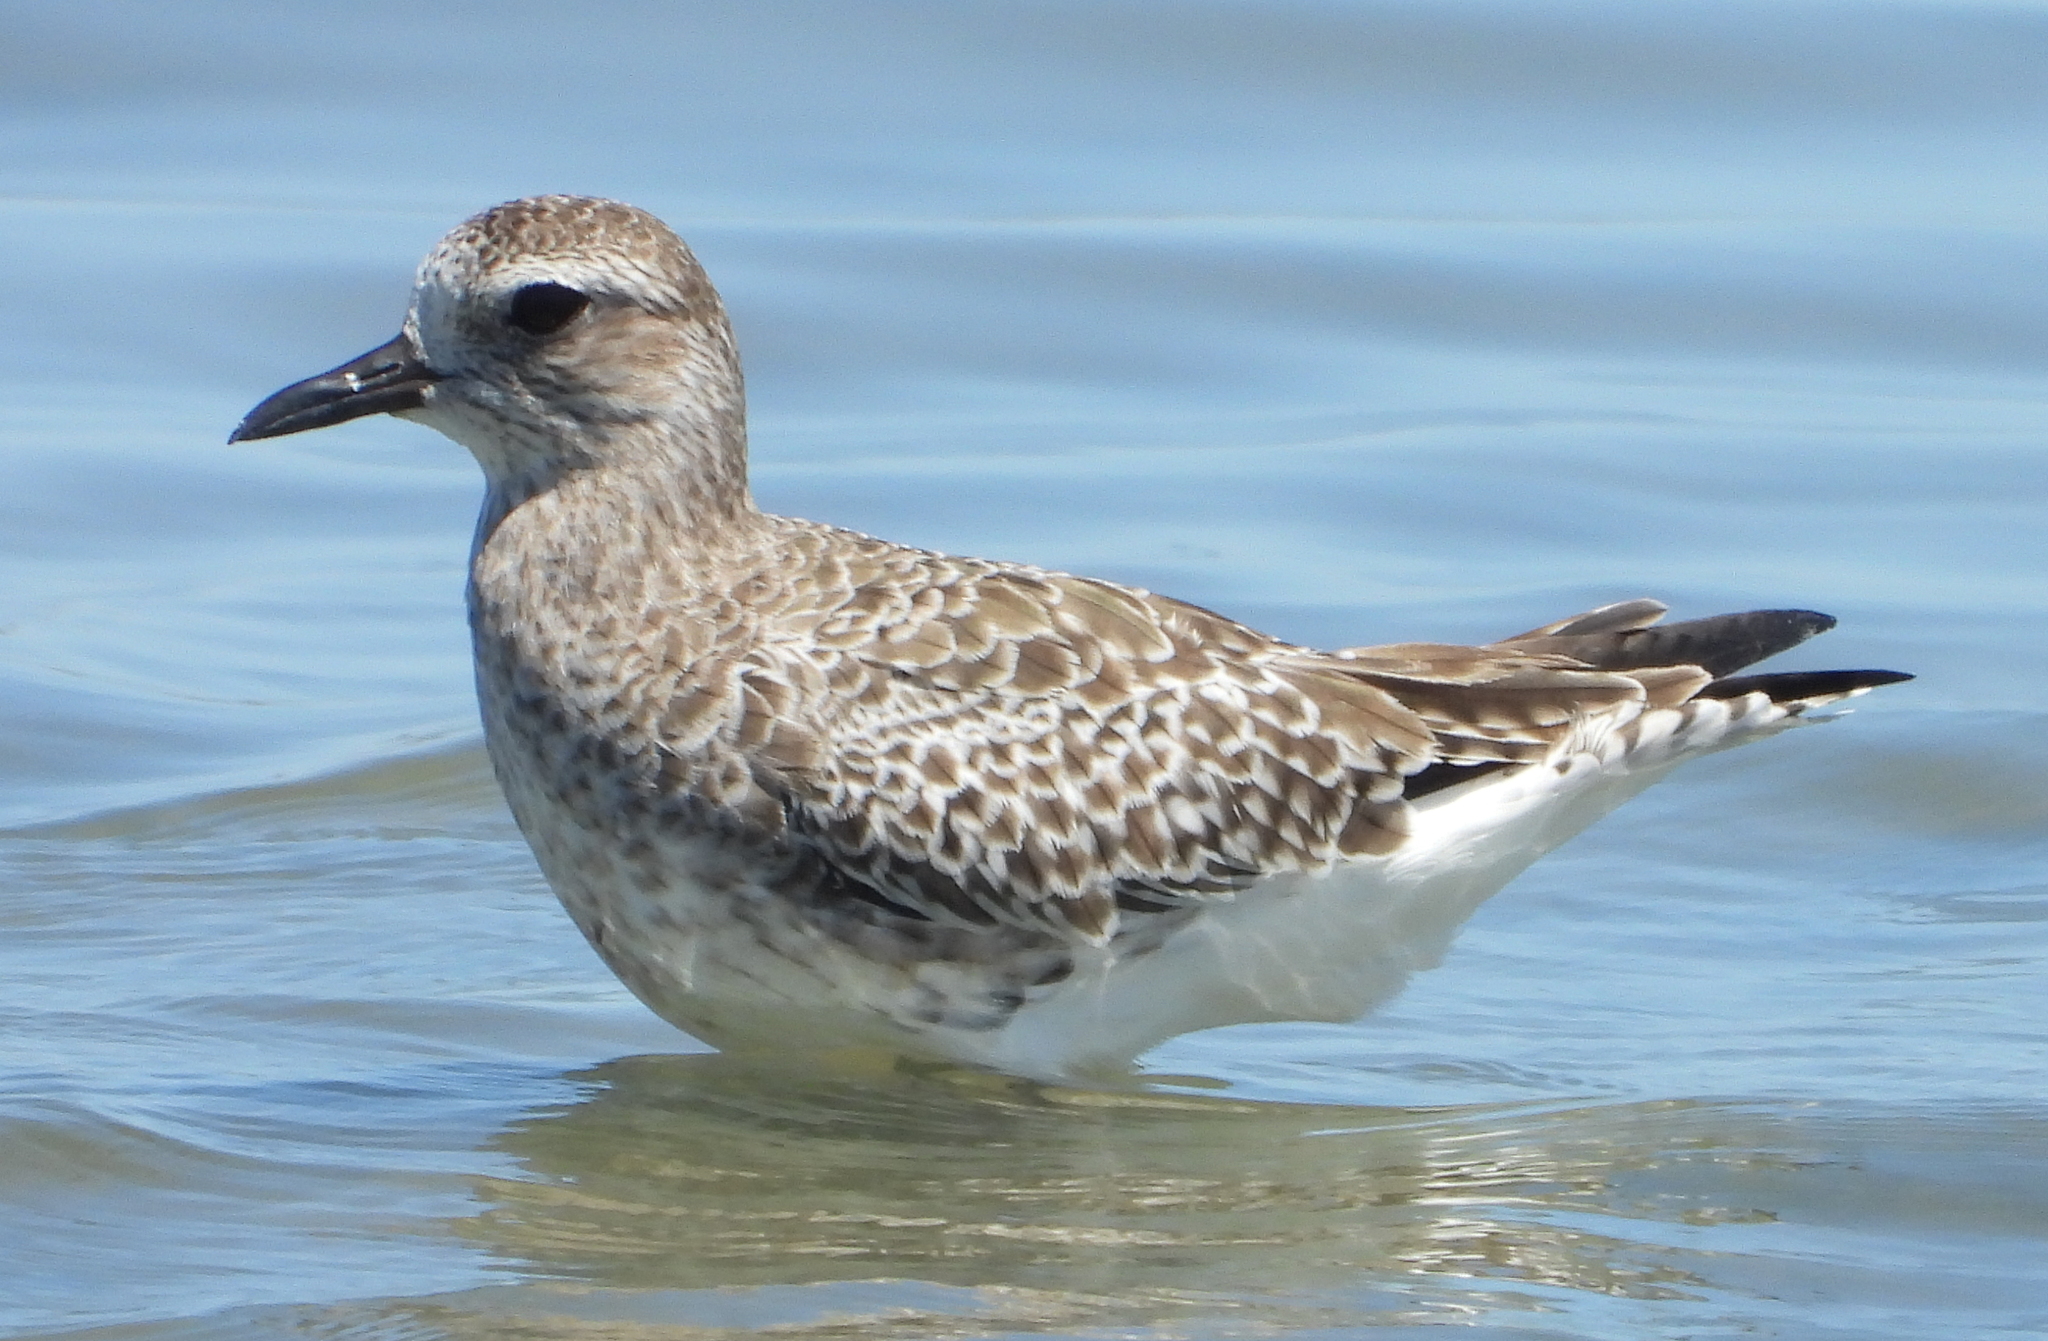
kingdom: Animalia
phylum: Chordata
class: Aves
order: Charadriiformes
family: Charadriidae
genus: Pluvialis
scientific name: Pluvialis squatarola
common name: Grey plover
